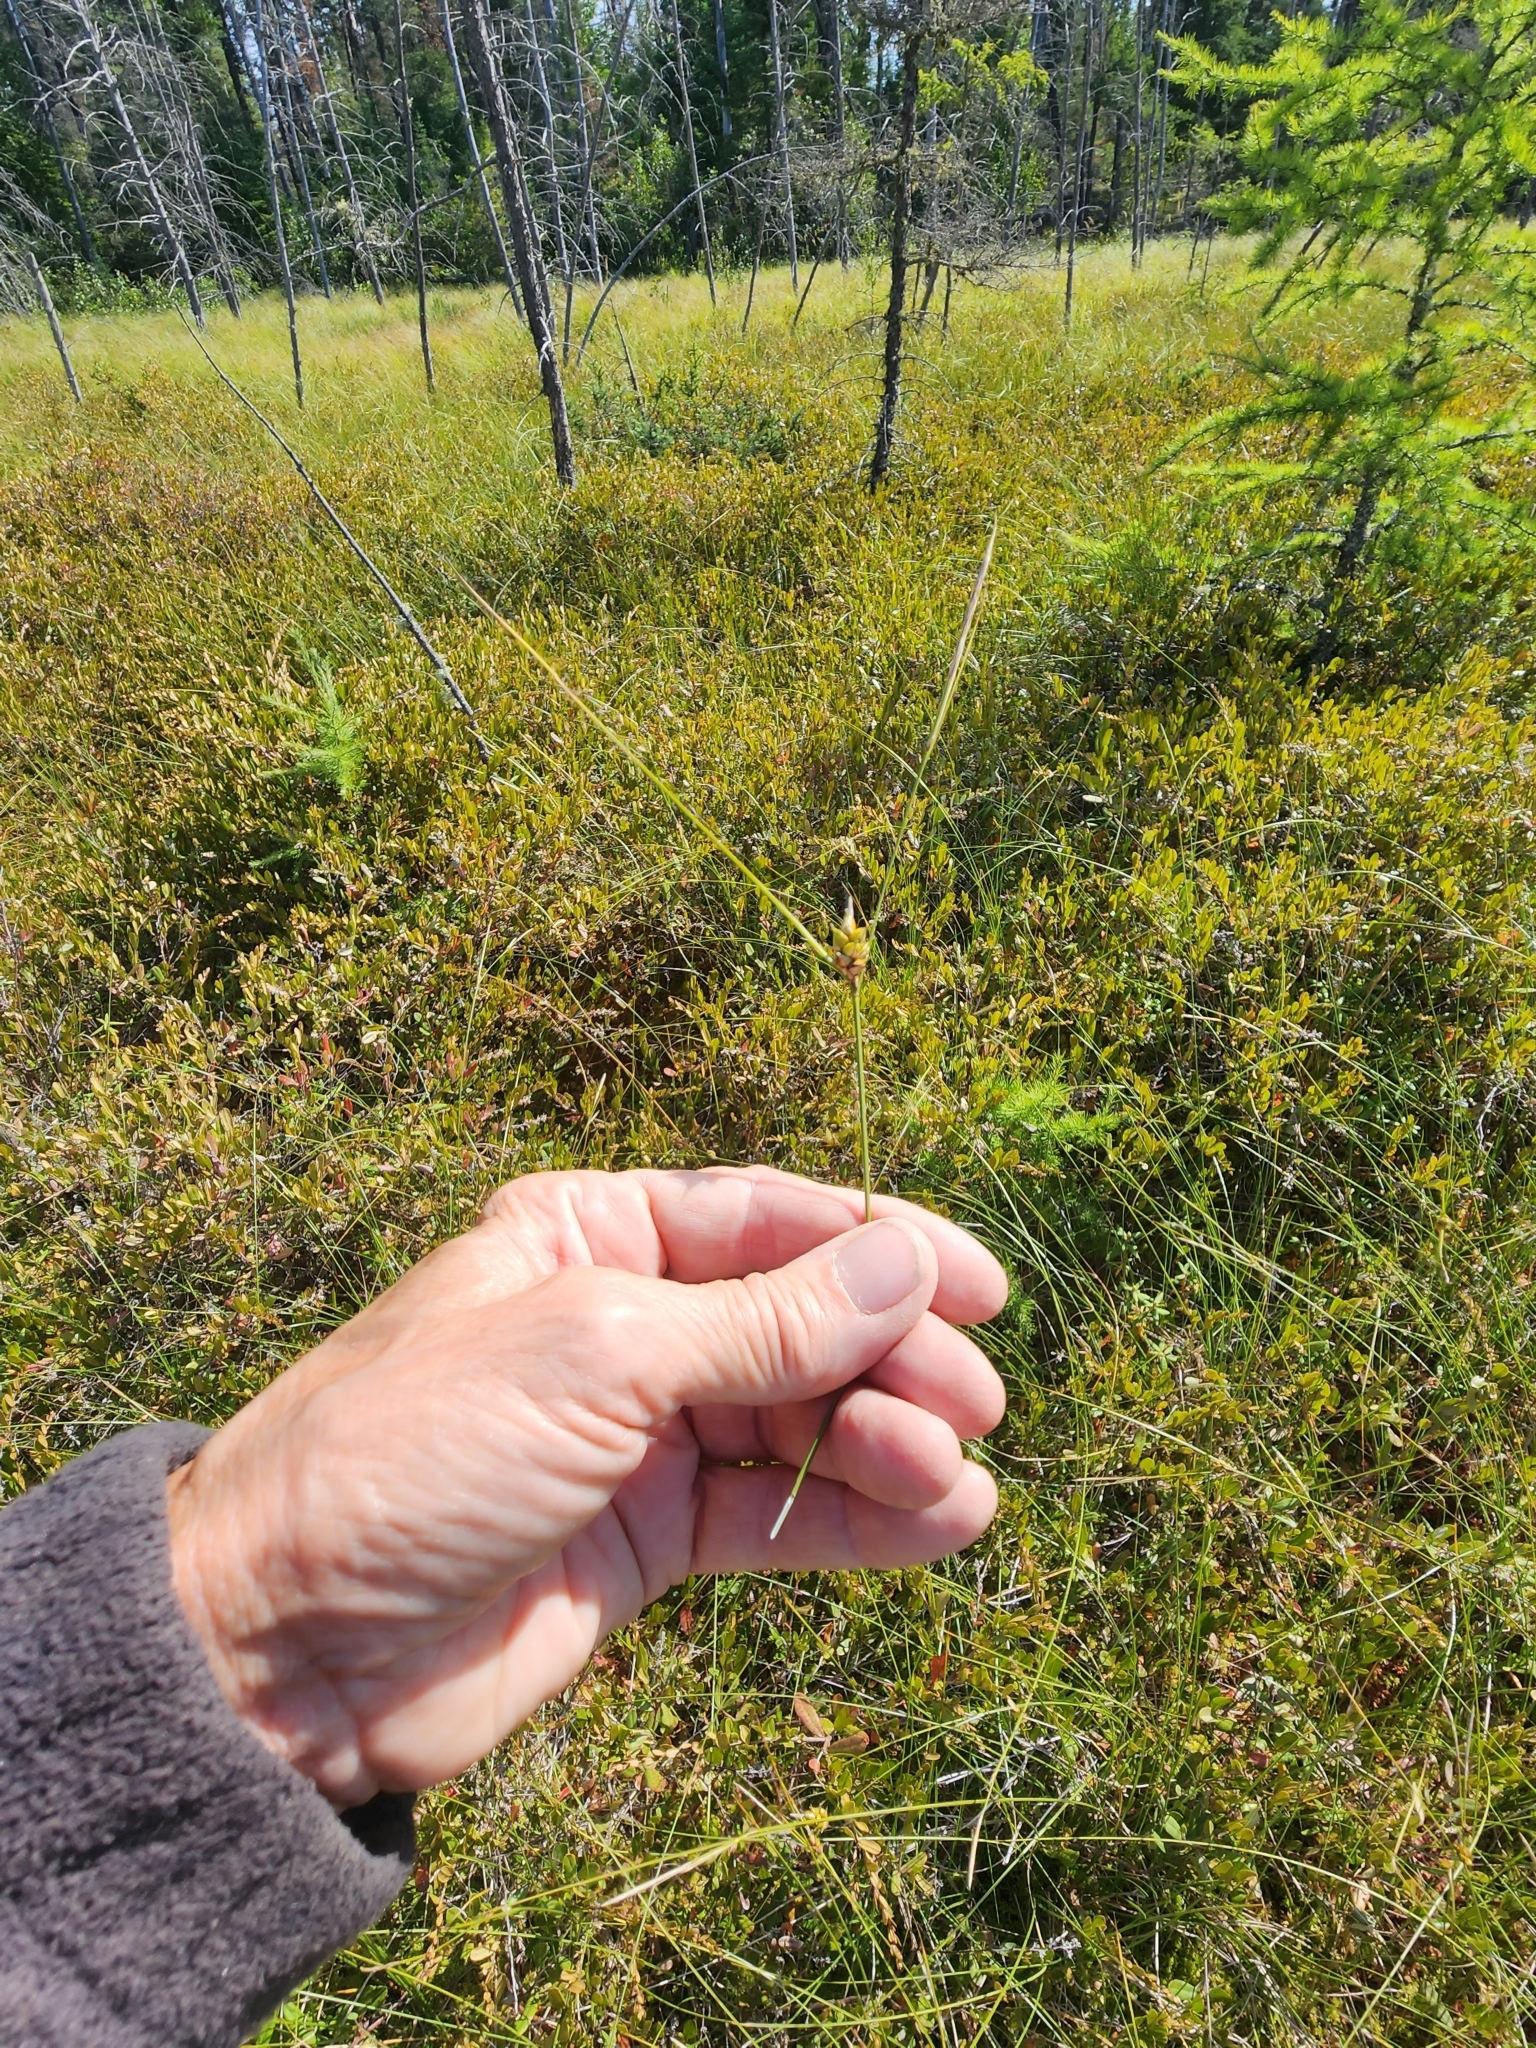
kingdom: Plantae
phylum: Tracheophyta
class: Liliopsida
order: Poales
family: Cyperaceae
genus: Carex
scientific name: Carex oligosperma
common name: Few-seed sedge
